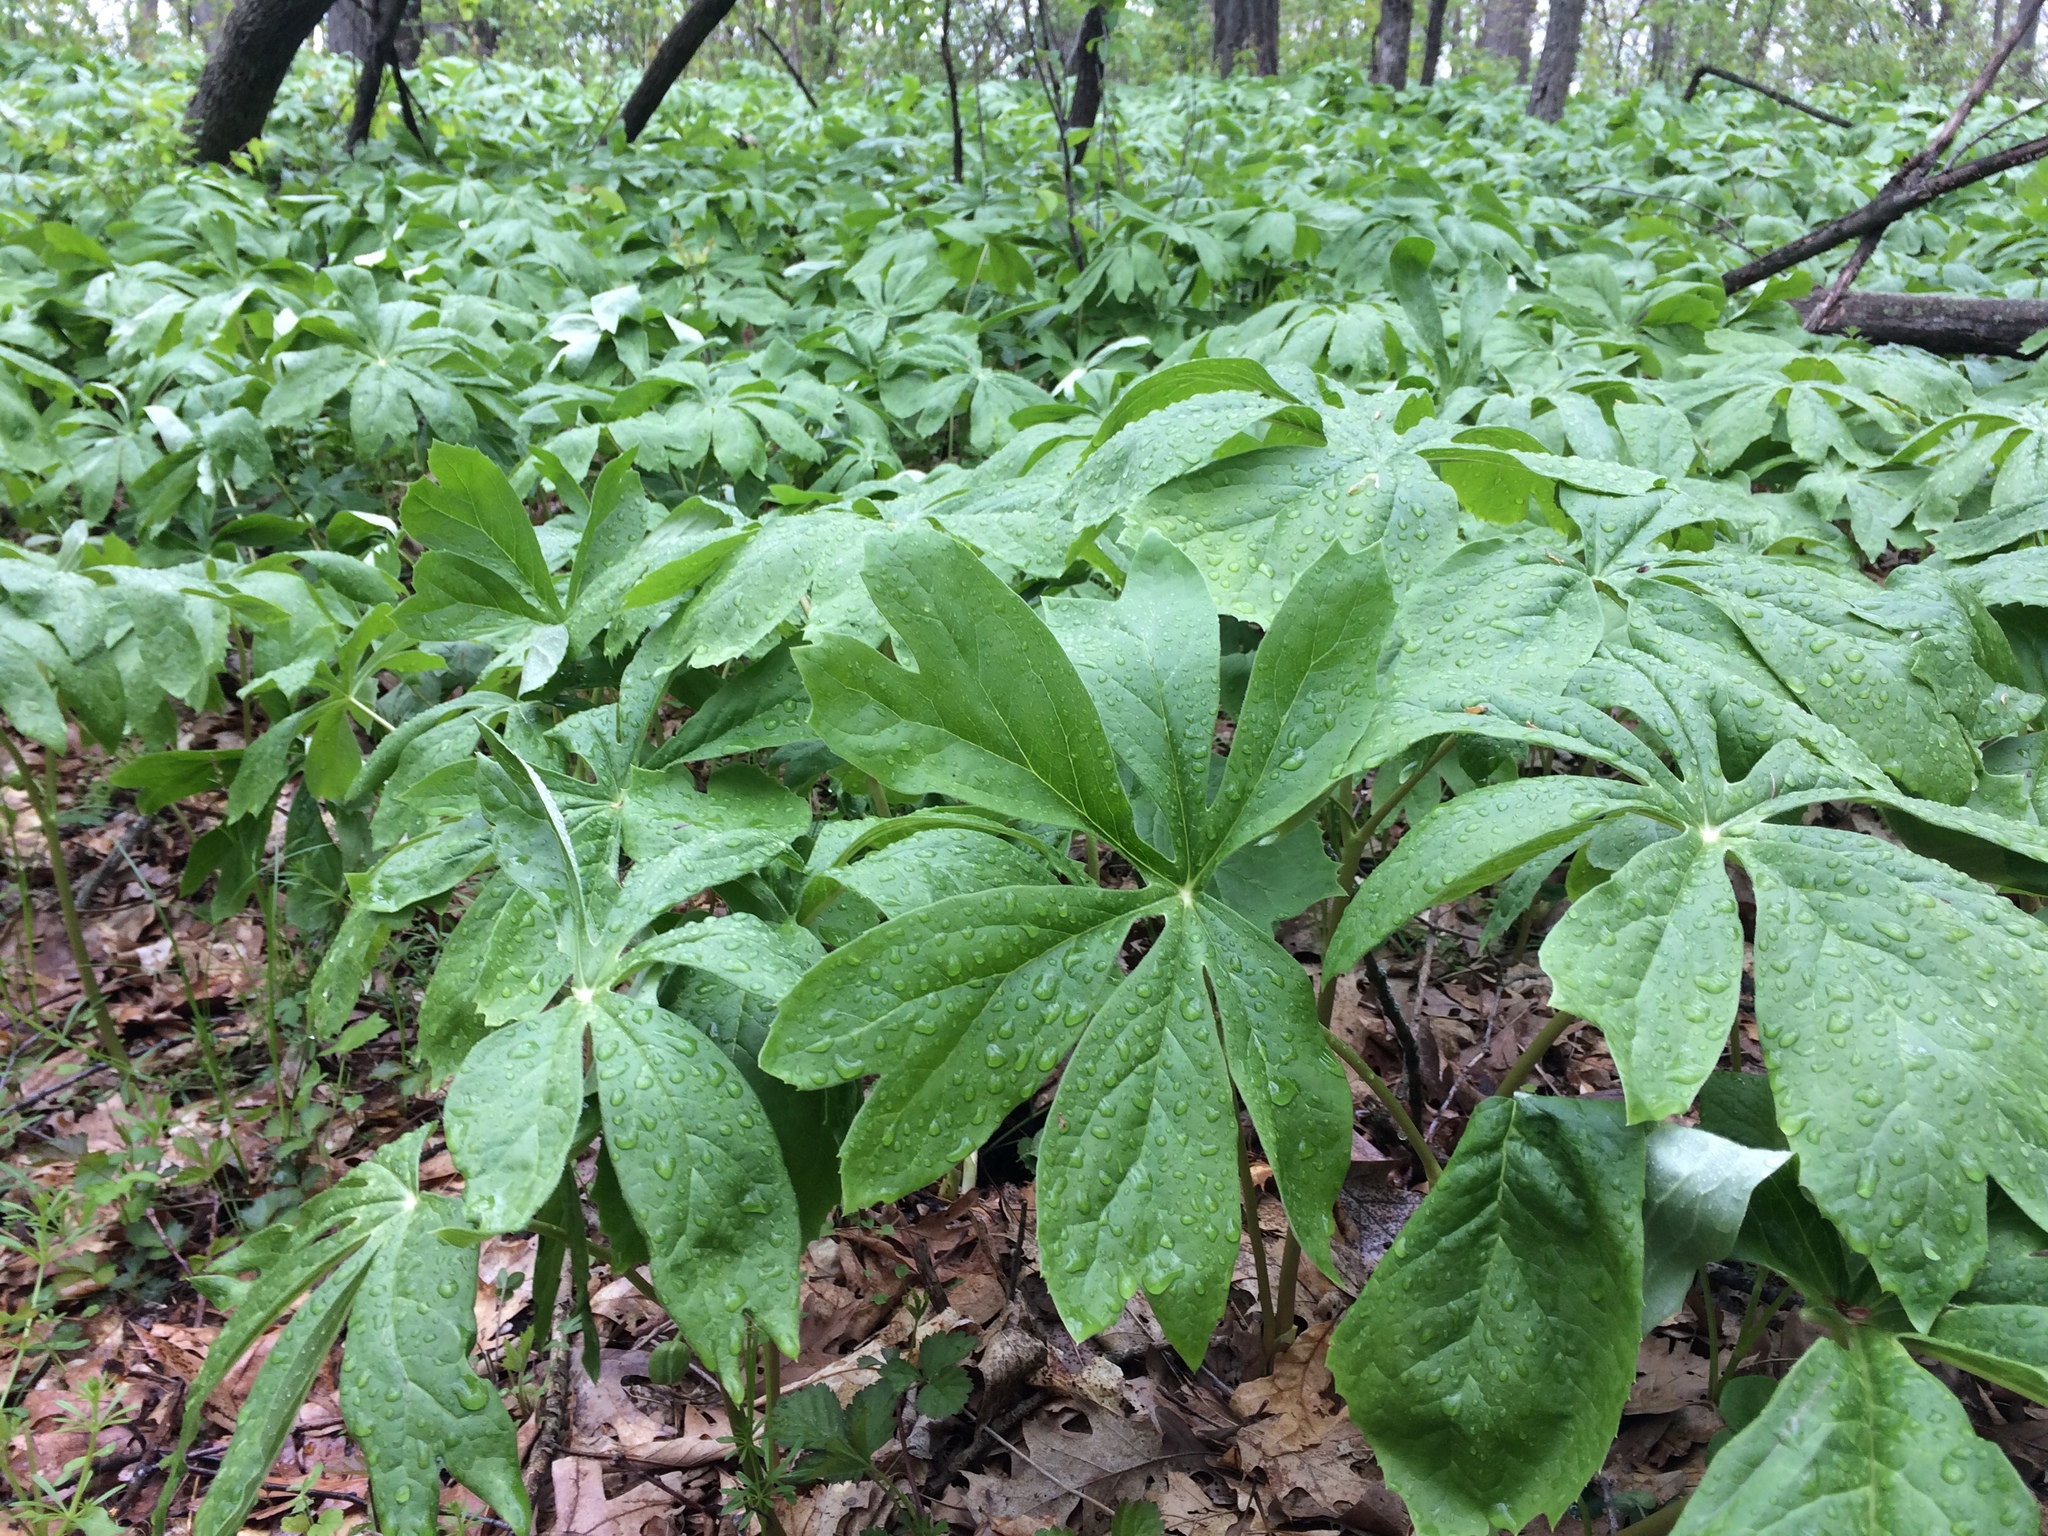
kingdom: Plantae
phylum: Tracheophyta
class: Magnoliopsida
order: Ranunculales
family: Berberidaceae
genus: Podophyllum
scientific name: Podophyllum peltatum
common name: Wild mandrake
